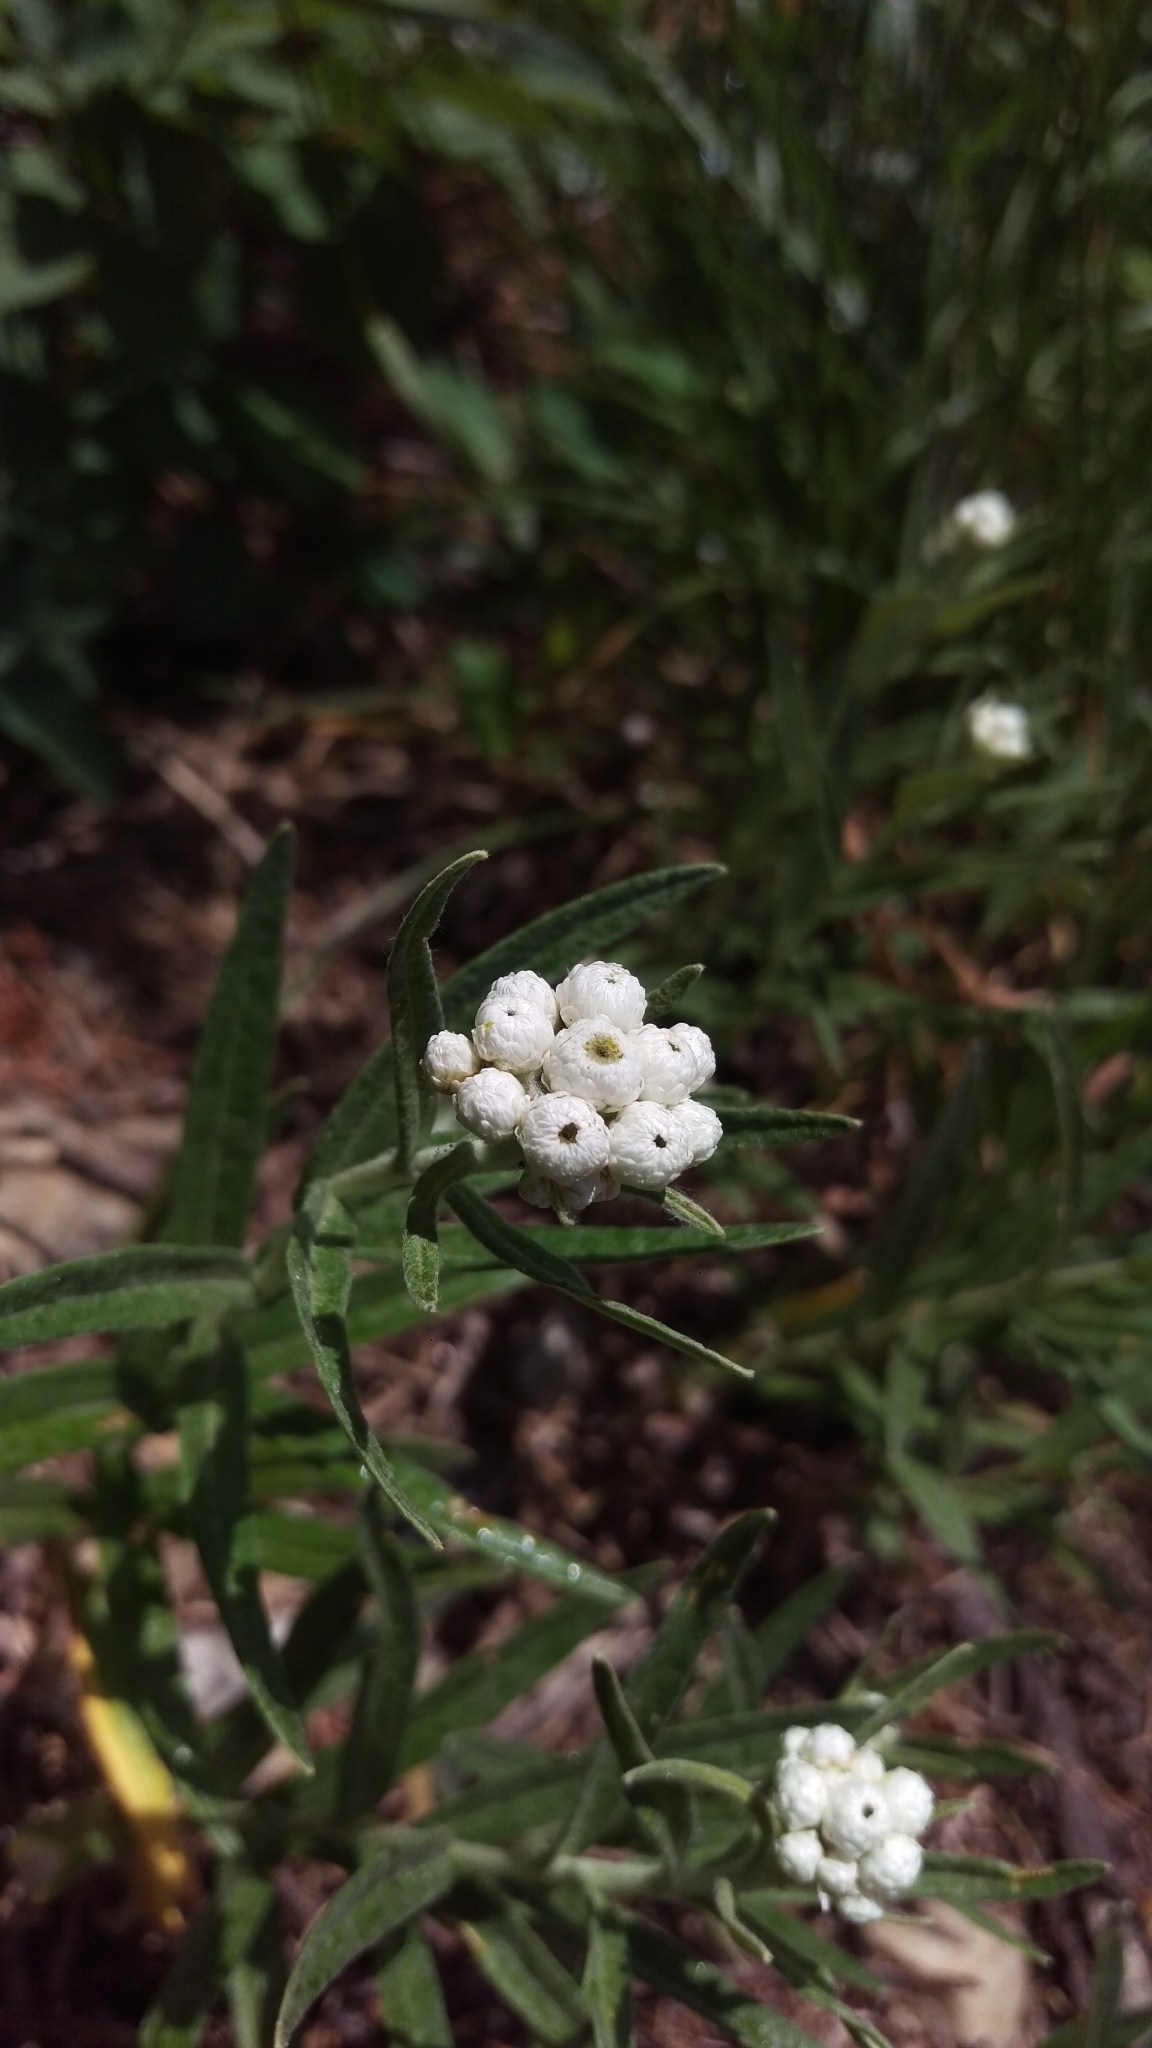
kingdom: Plantae
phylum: Tracheophyta
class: Magnoliopsida
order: Asterales
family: Asteraceae
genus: Anaphalis
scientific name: Anaphalis margaritacea
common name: Pearly everlasting
